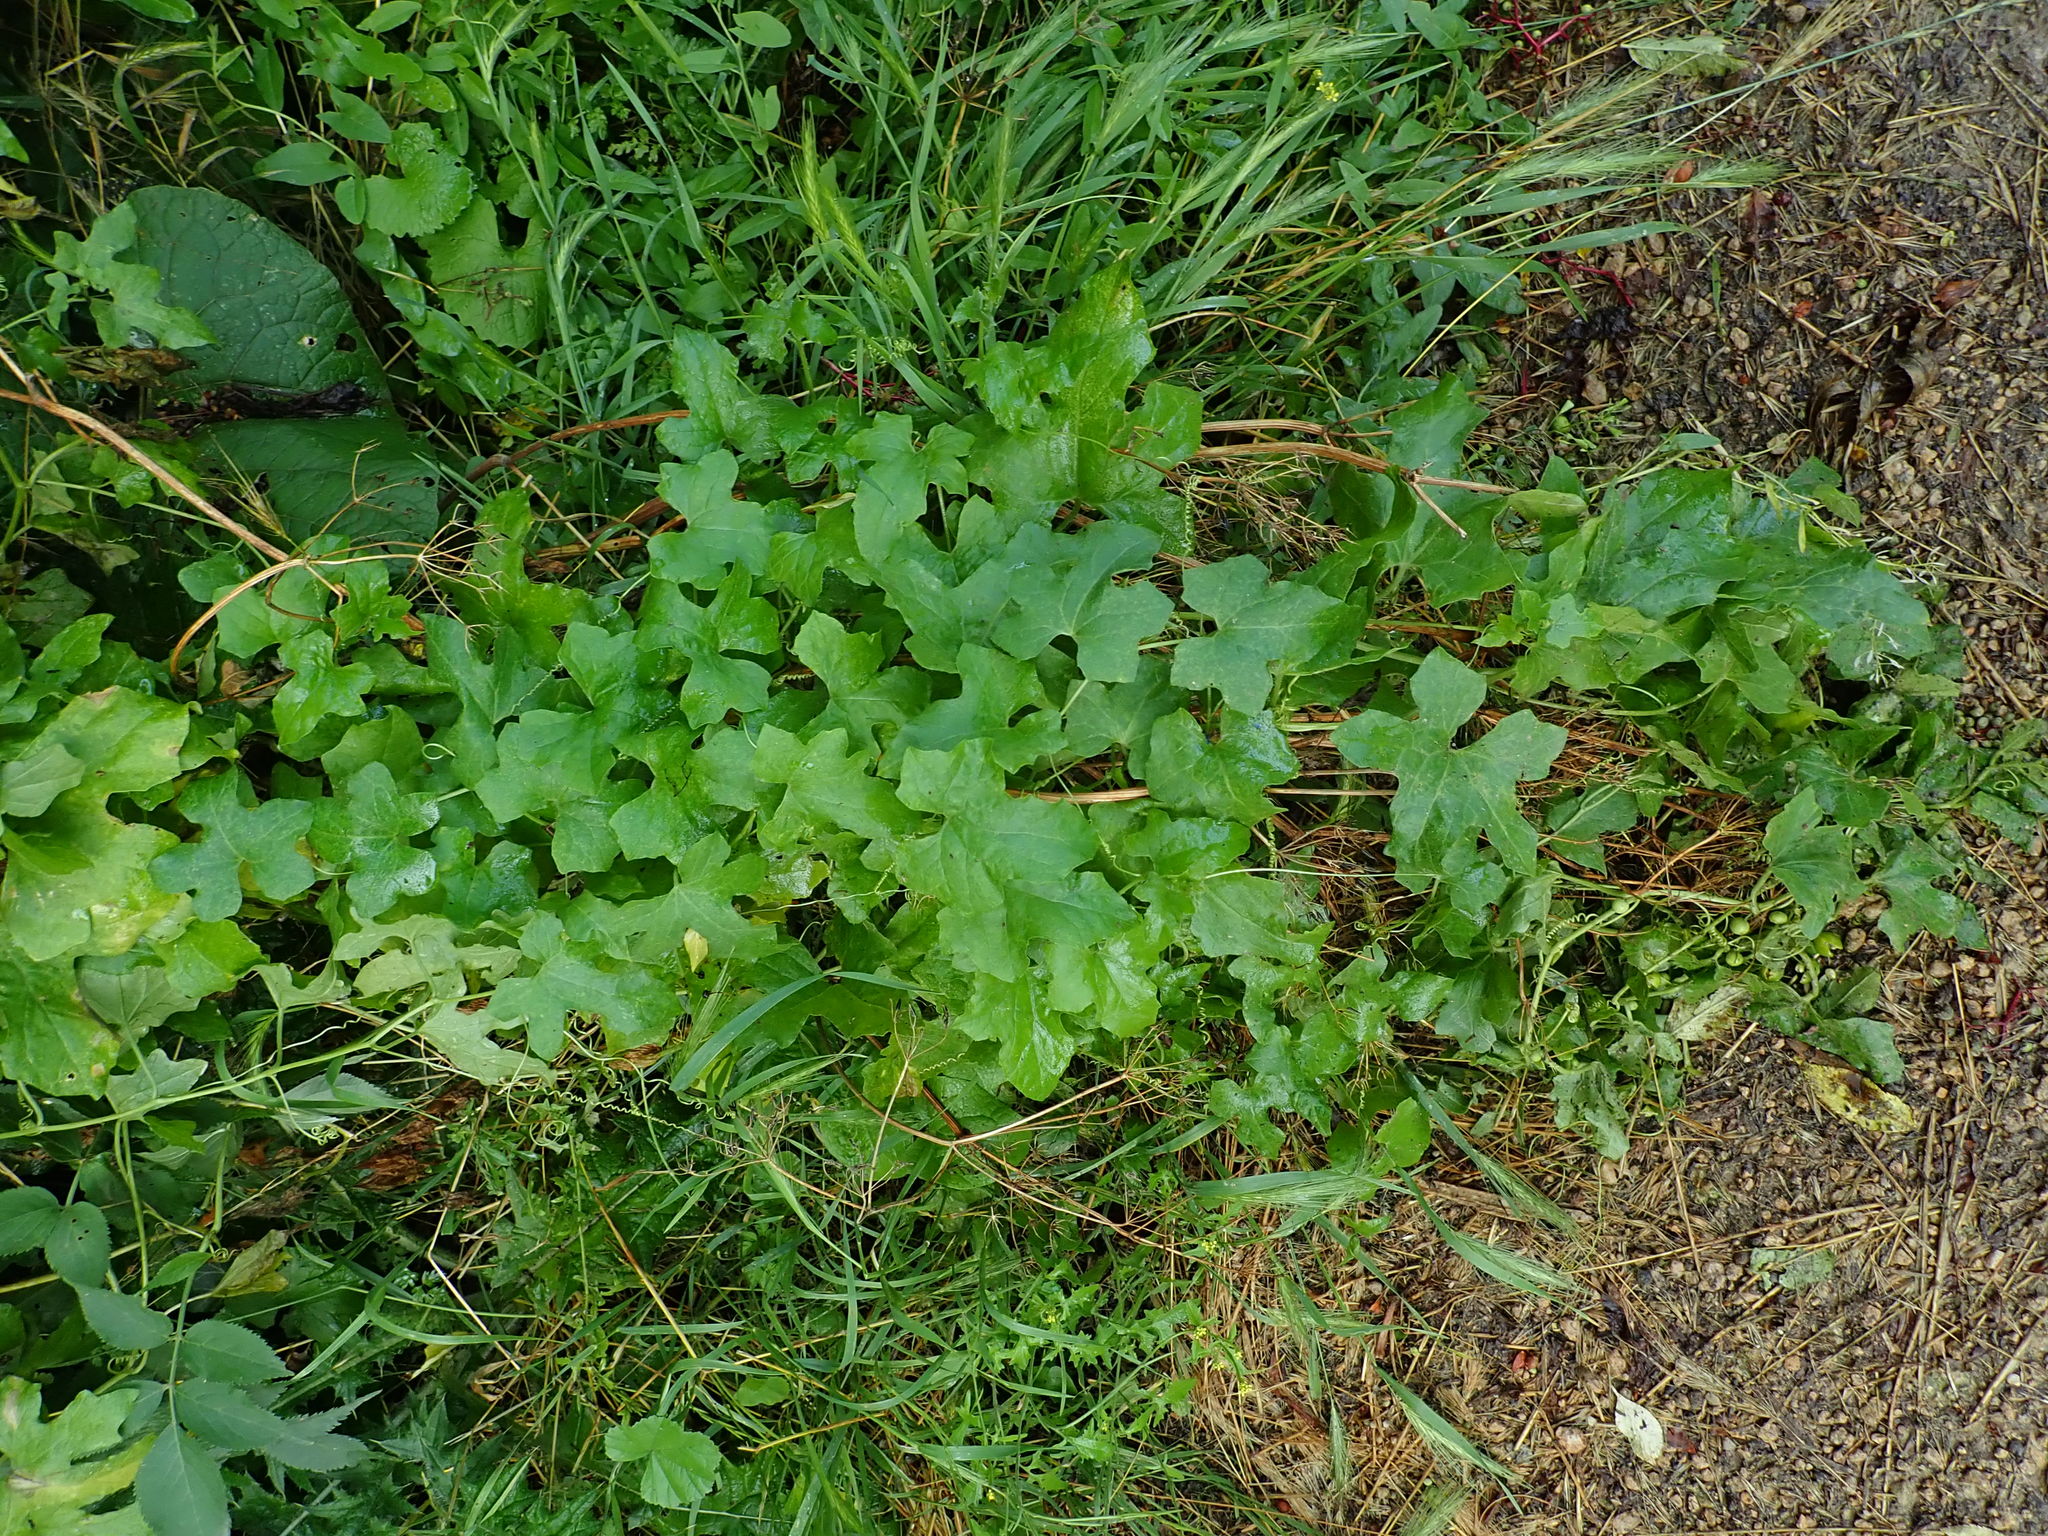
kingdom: Plantae
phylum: Tracheophyta
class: Magnoliopsida
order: Cucurbitales
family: Cucurbitaceae
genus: Bryonia
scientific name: Bryonia cretica
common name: Cretan bryony
